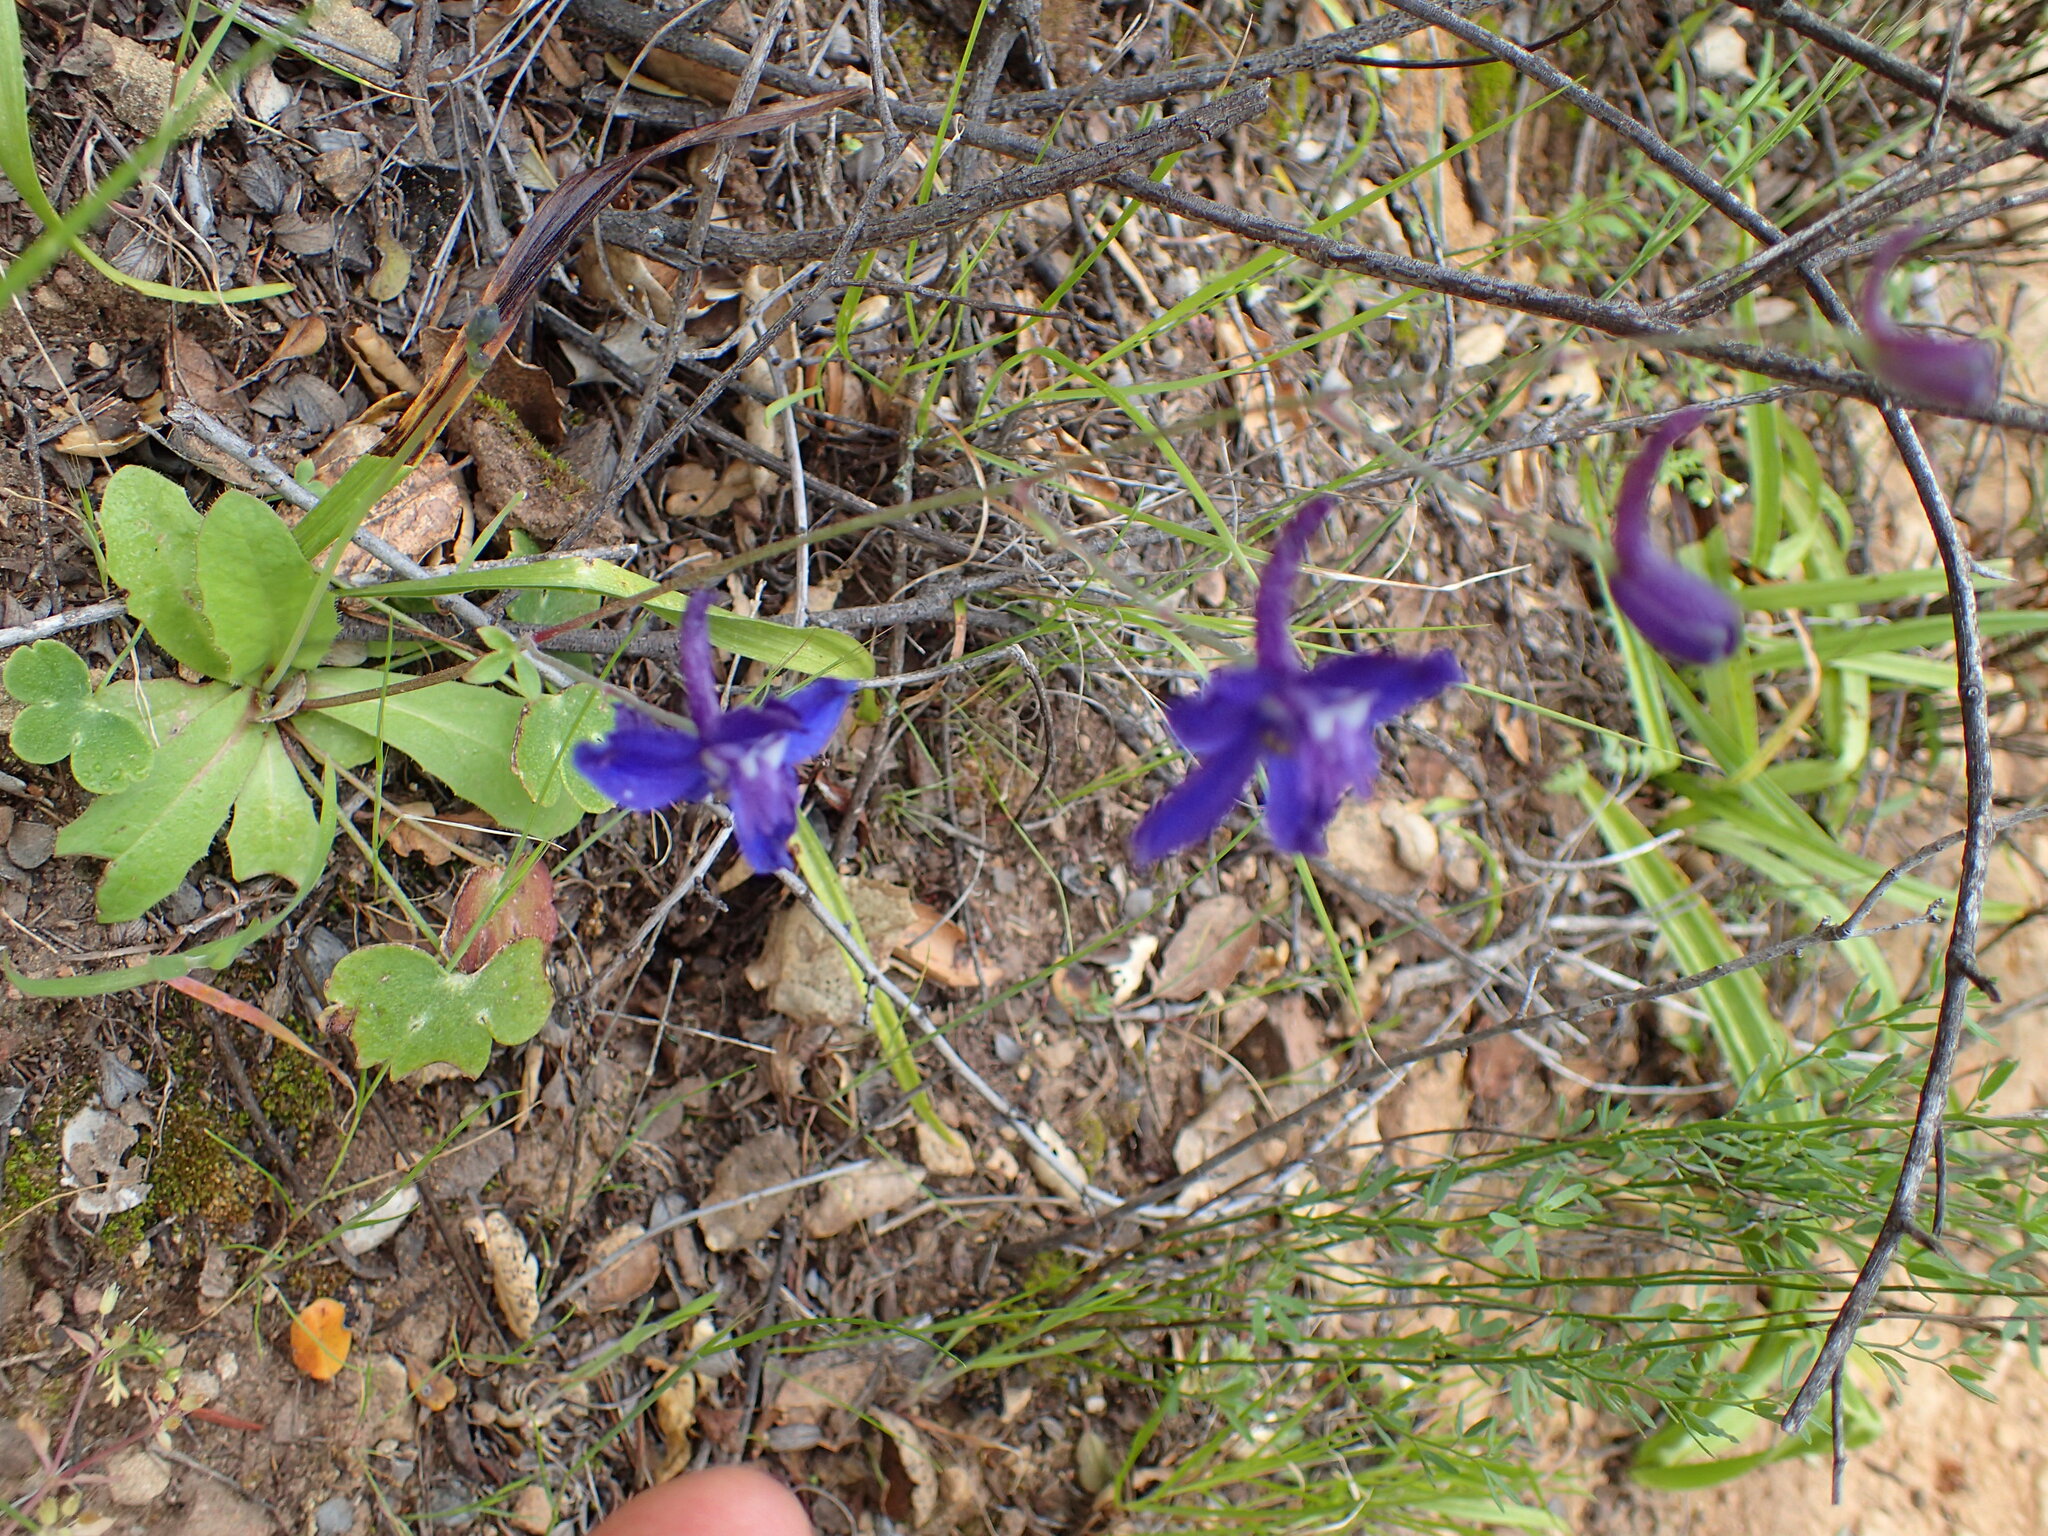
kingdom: Plantae
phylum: Tracheophyta
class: Magnoliopsida
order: Ranunculales
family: Ranunculaceae
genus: Delphinium
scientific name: Delphinium patens
